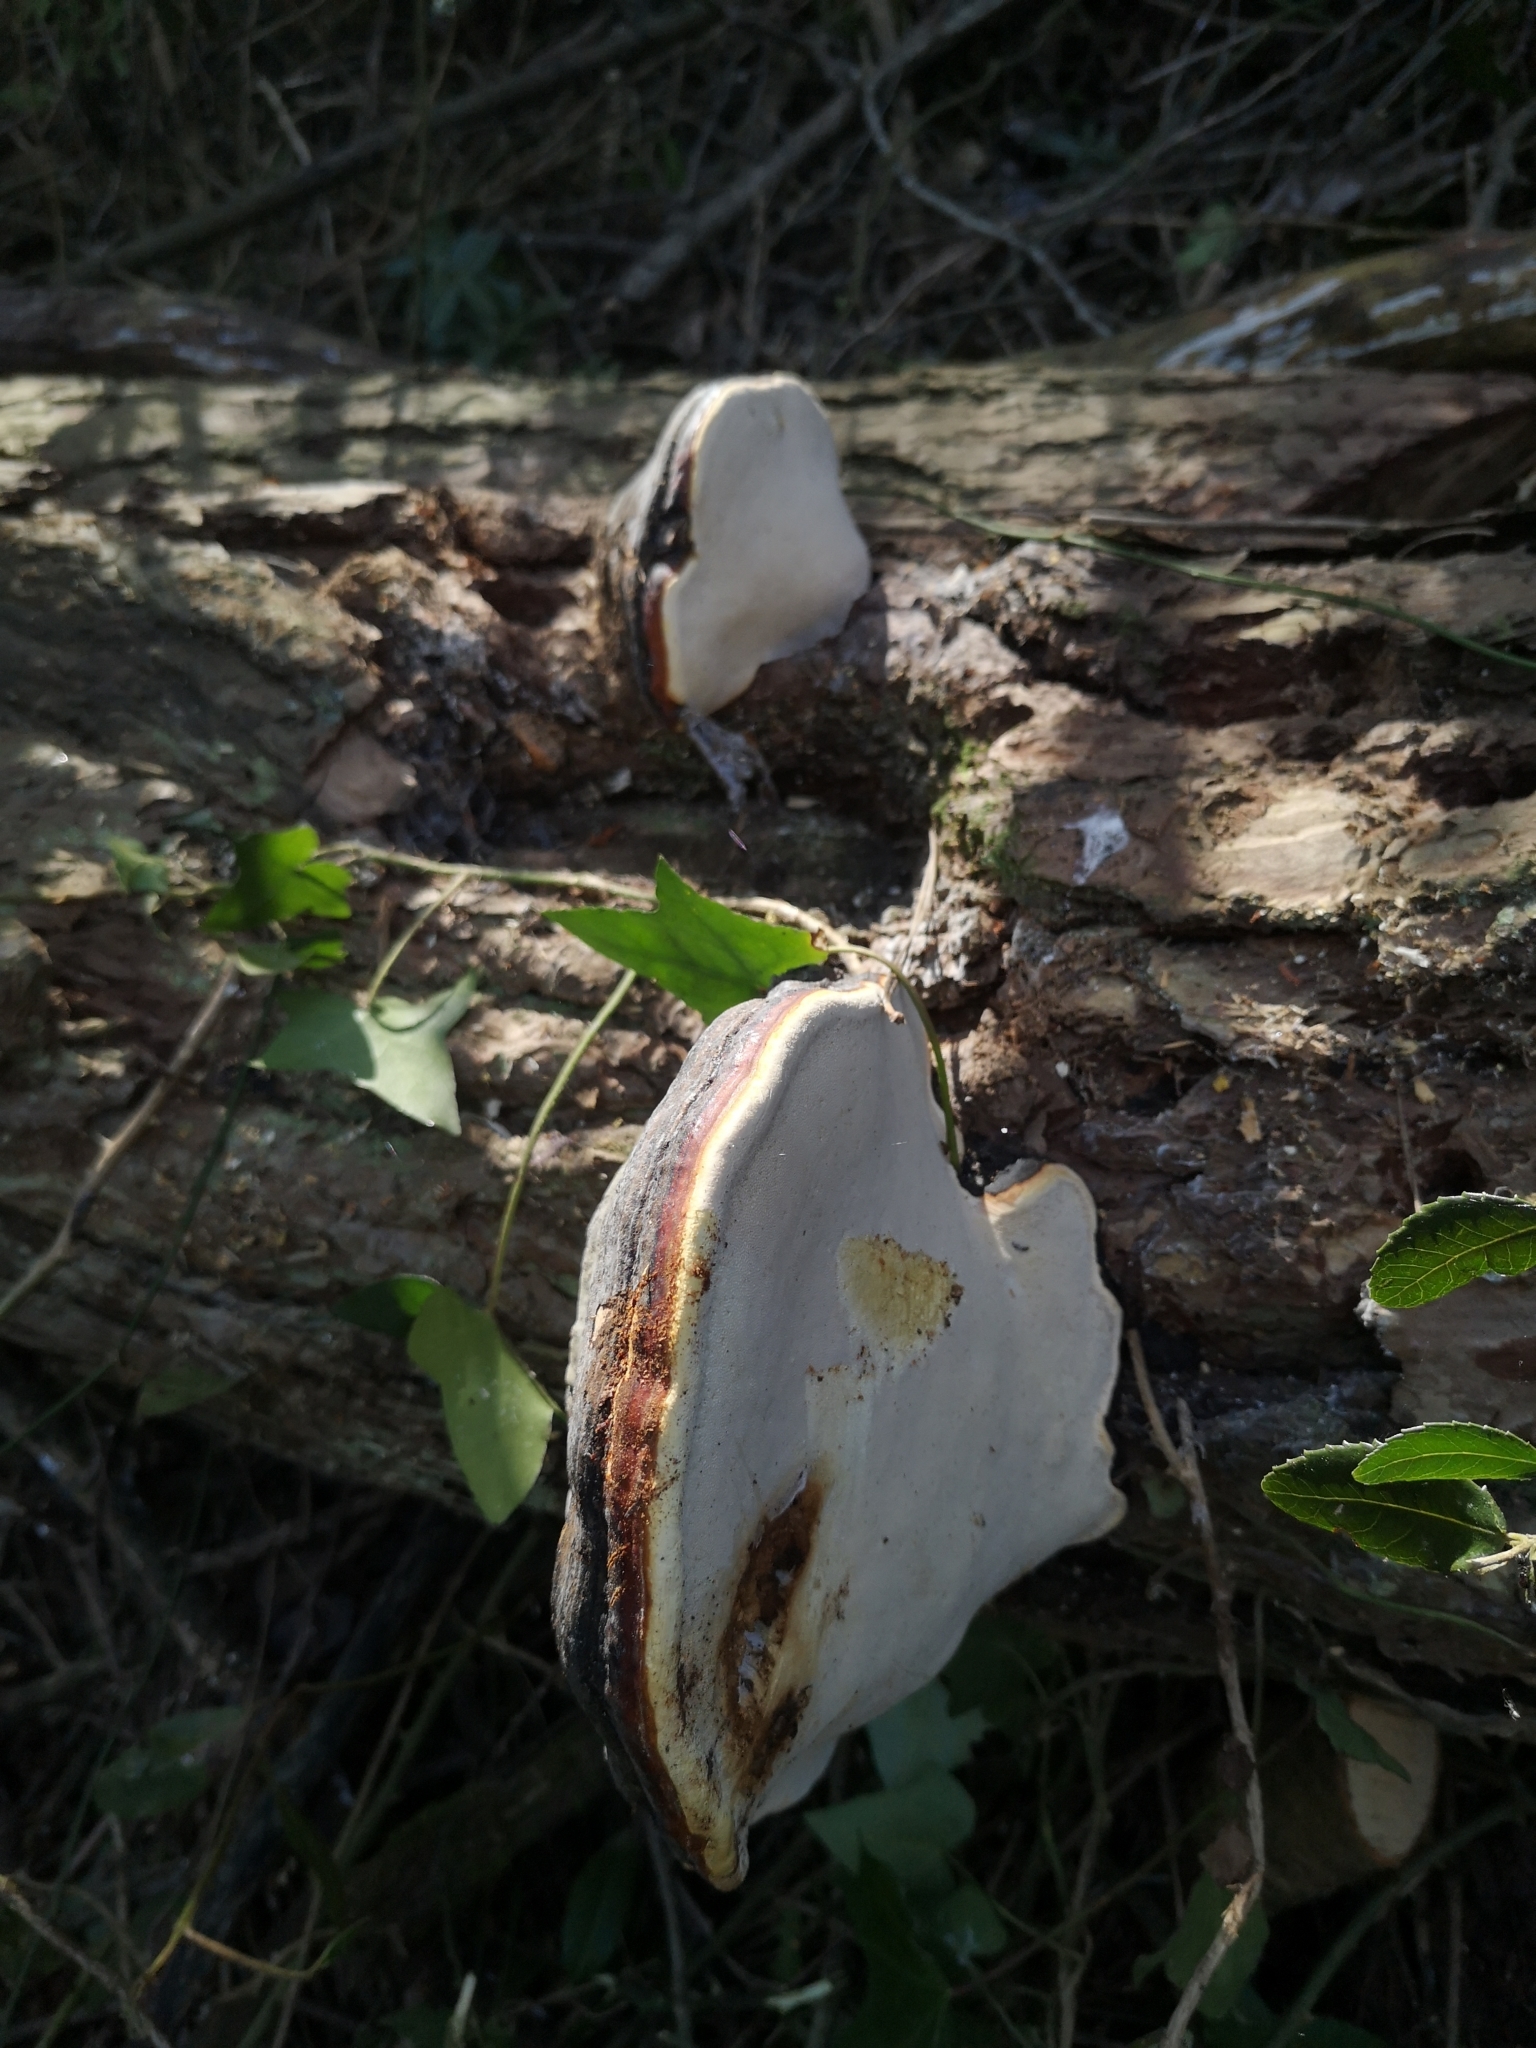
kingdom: Fungi
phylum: Basidiomycota
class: Agaricomycetes
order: Polyporales
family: Fomitopsidaceae
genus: Fomitopsis
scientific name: Fomitopsis pinicola
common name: Red-belted bracket
